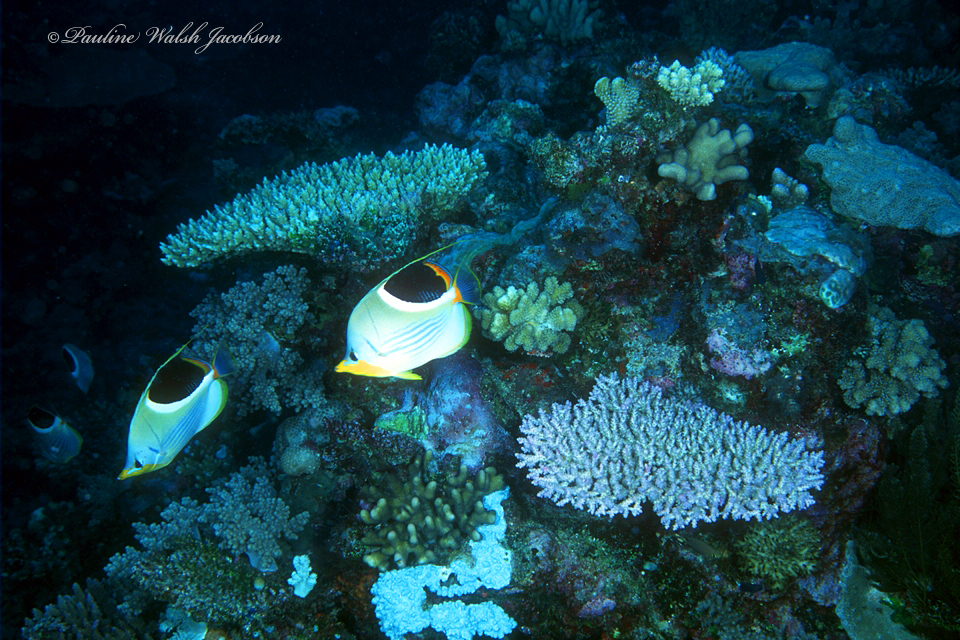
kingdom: Animalia
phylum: Chordata
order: Perciformes
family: Chaetodontidae
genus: Chaetodon
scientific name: Chaetodon ephippium
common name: Saddled butterflyfish
